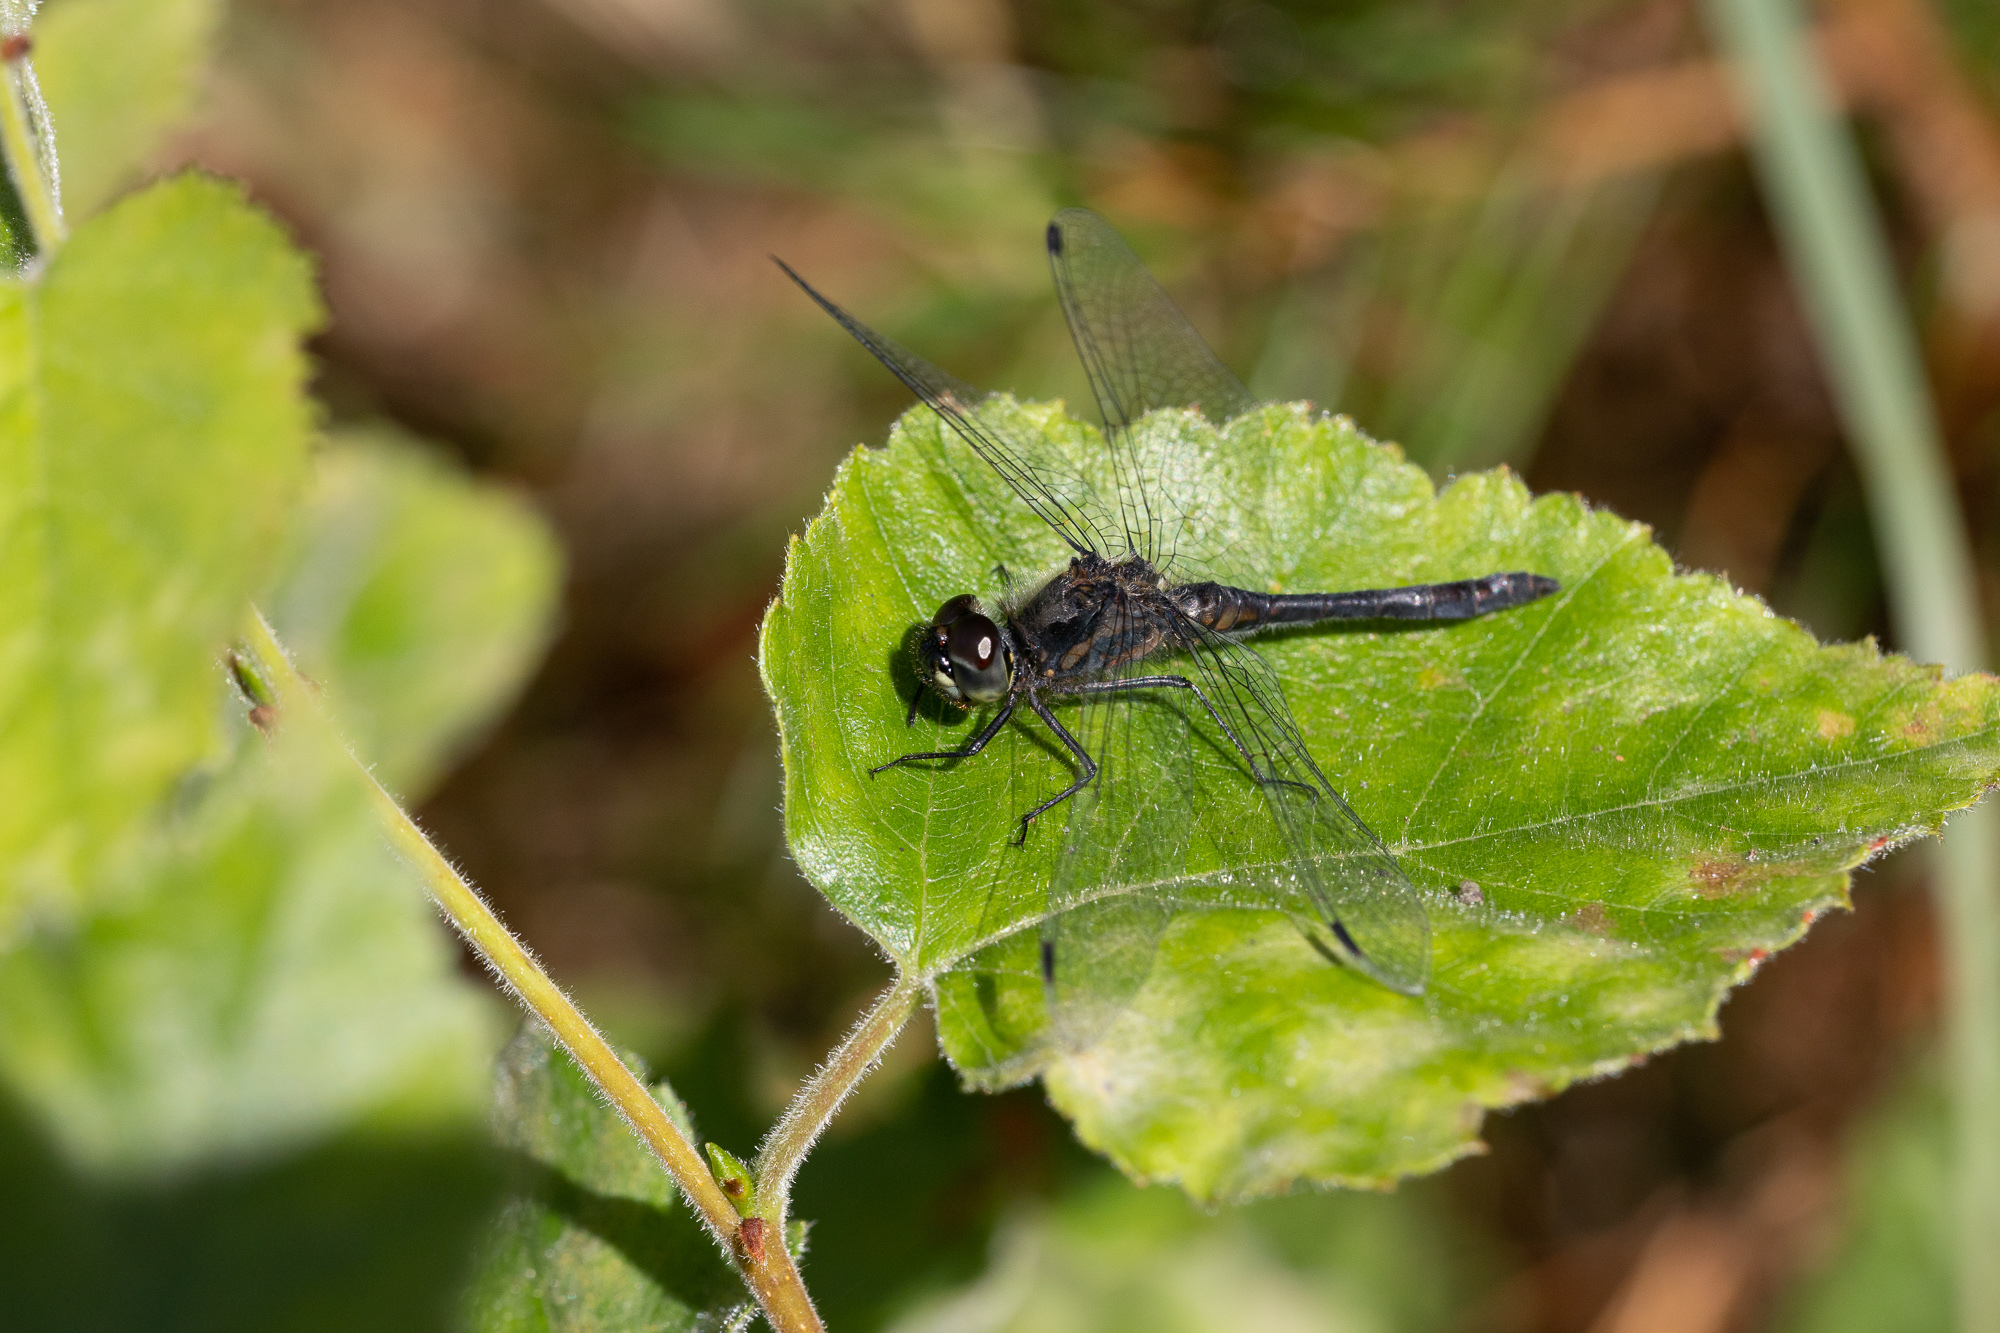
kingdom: Animalia
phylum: Arthropoda
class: Insecta
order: Odonata
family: Libellulidae
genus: Sympetrum
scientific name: Sympetrum danae
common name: Black darter
